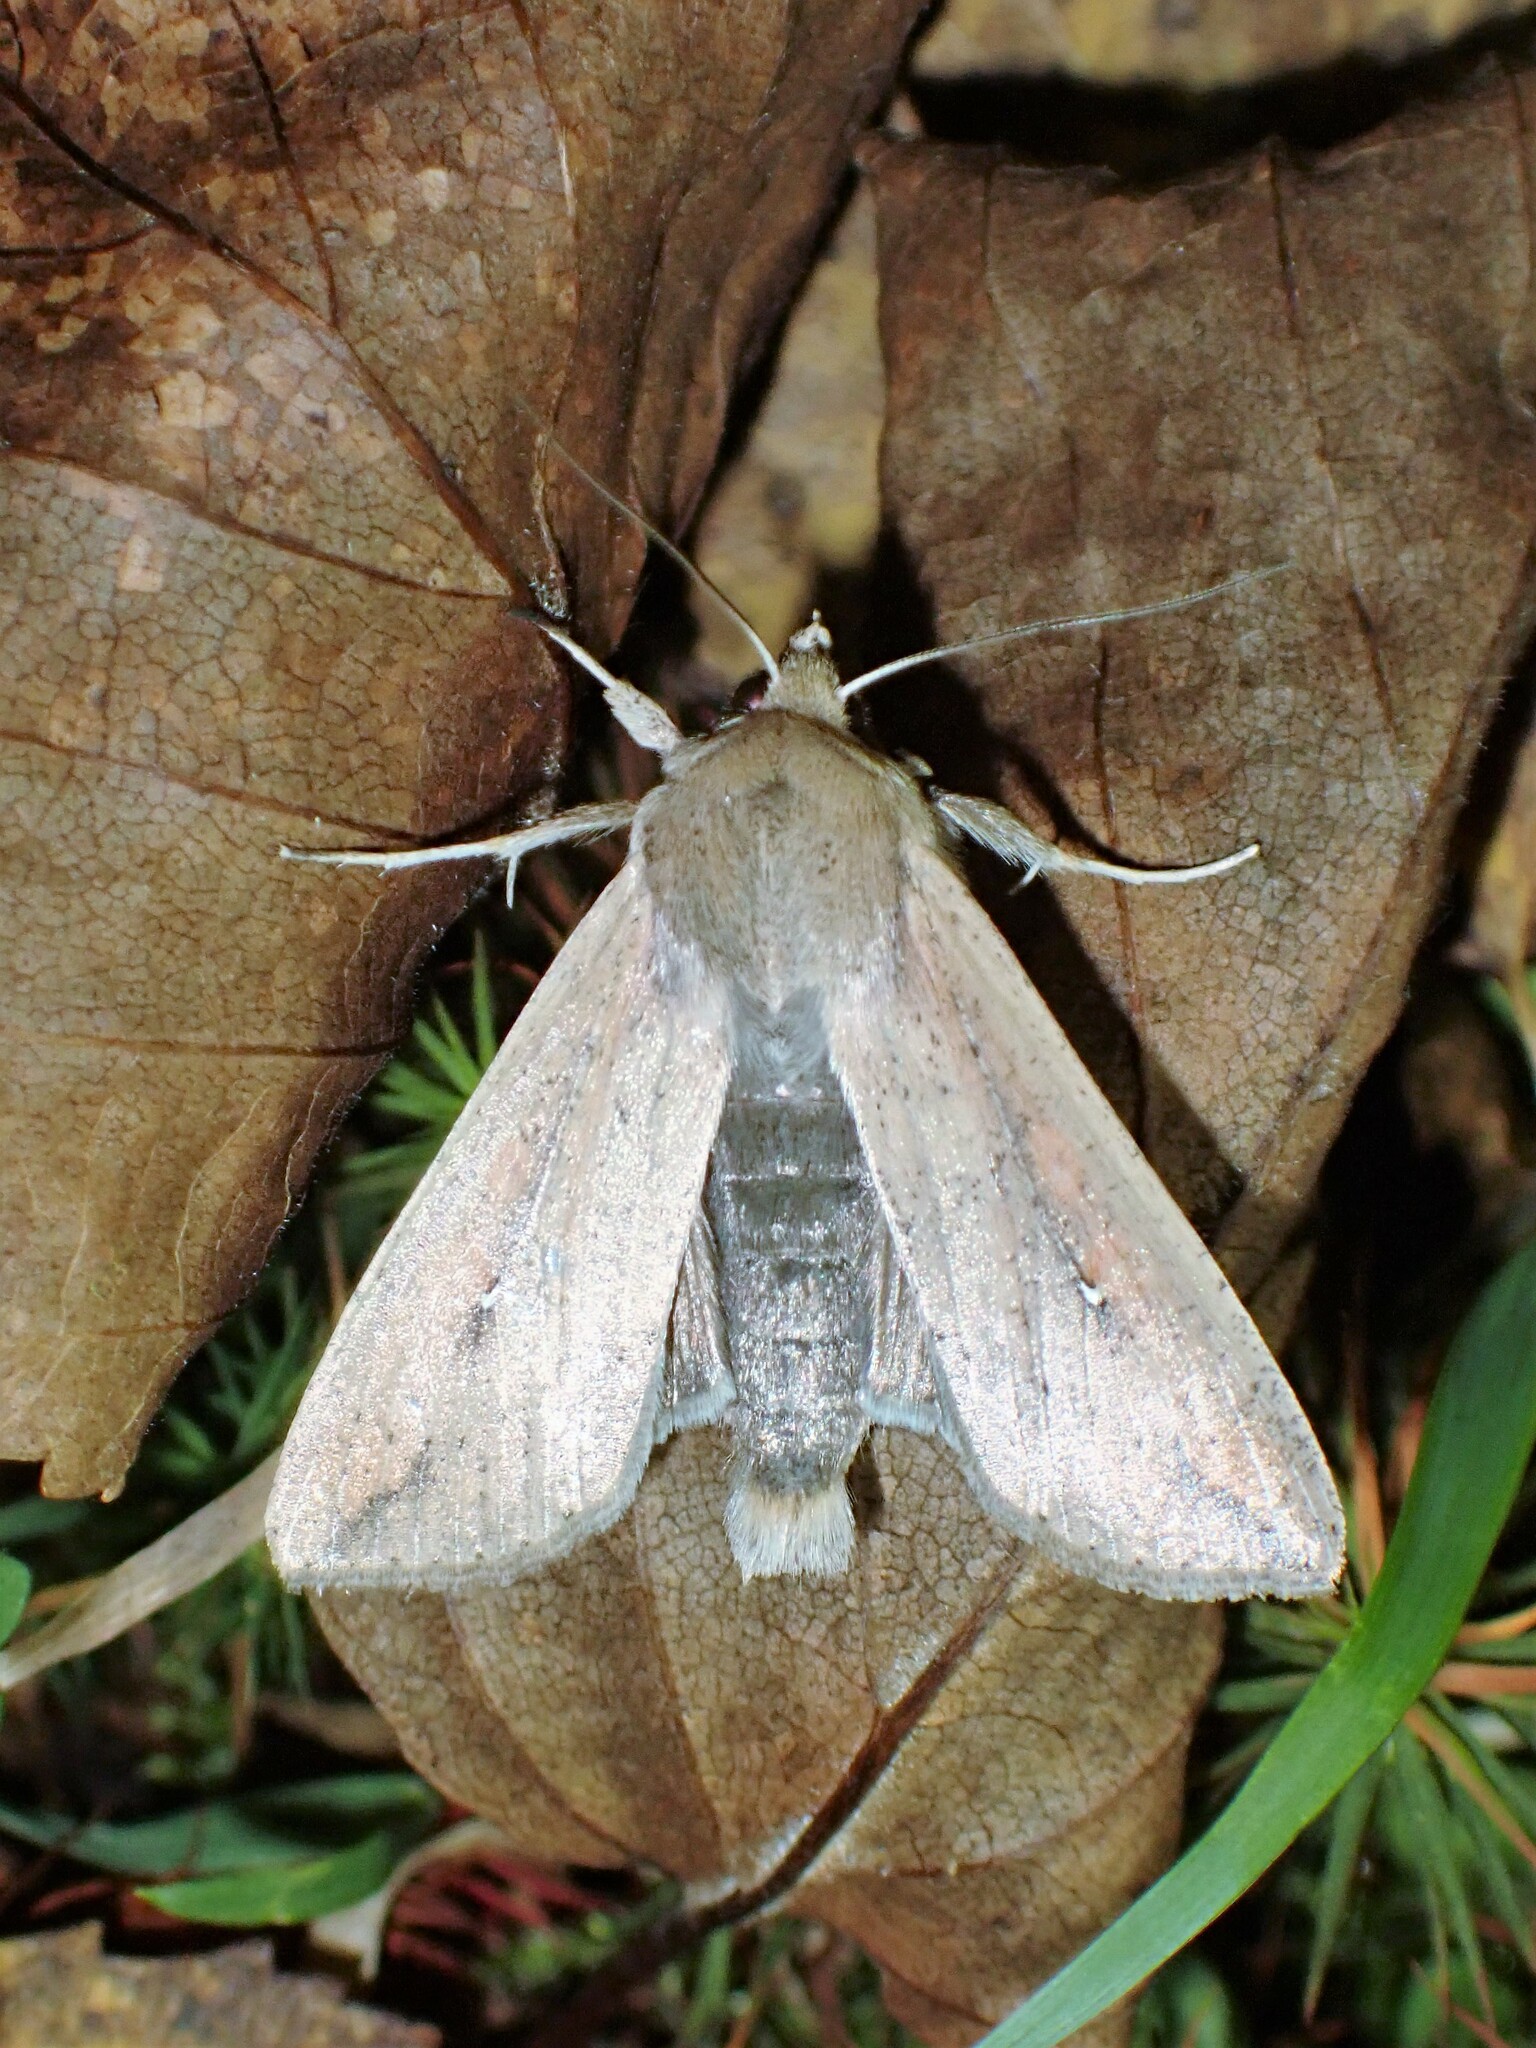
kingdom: Animalia
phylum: Arthropoda
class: Insecta
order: Lepidoptera
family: Noctuidae
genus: Mythimna
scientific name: Mythimna unipuncta
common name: White-speck
